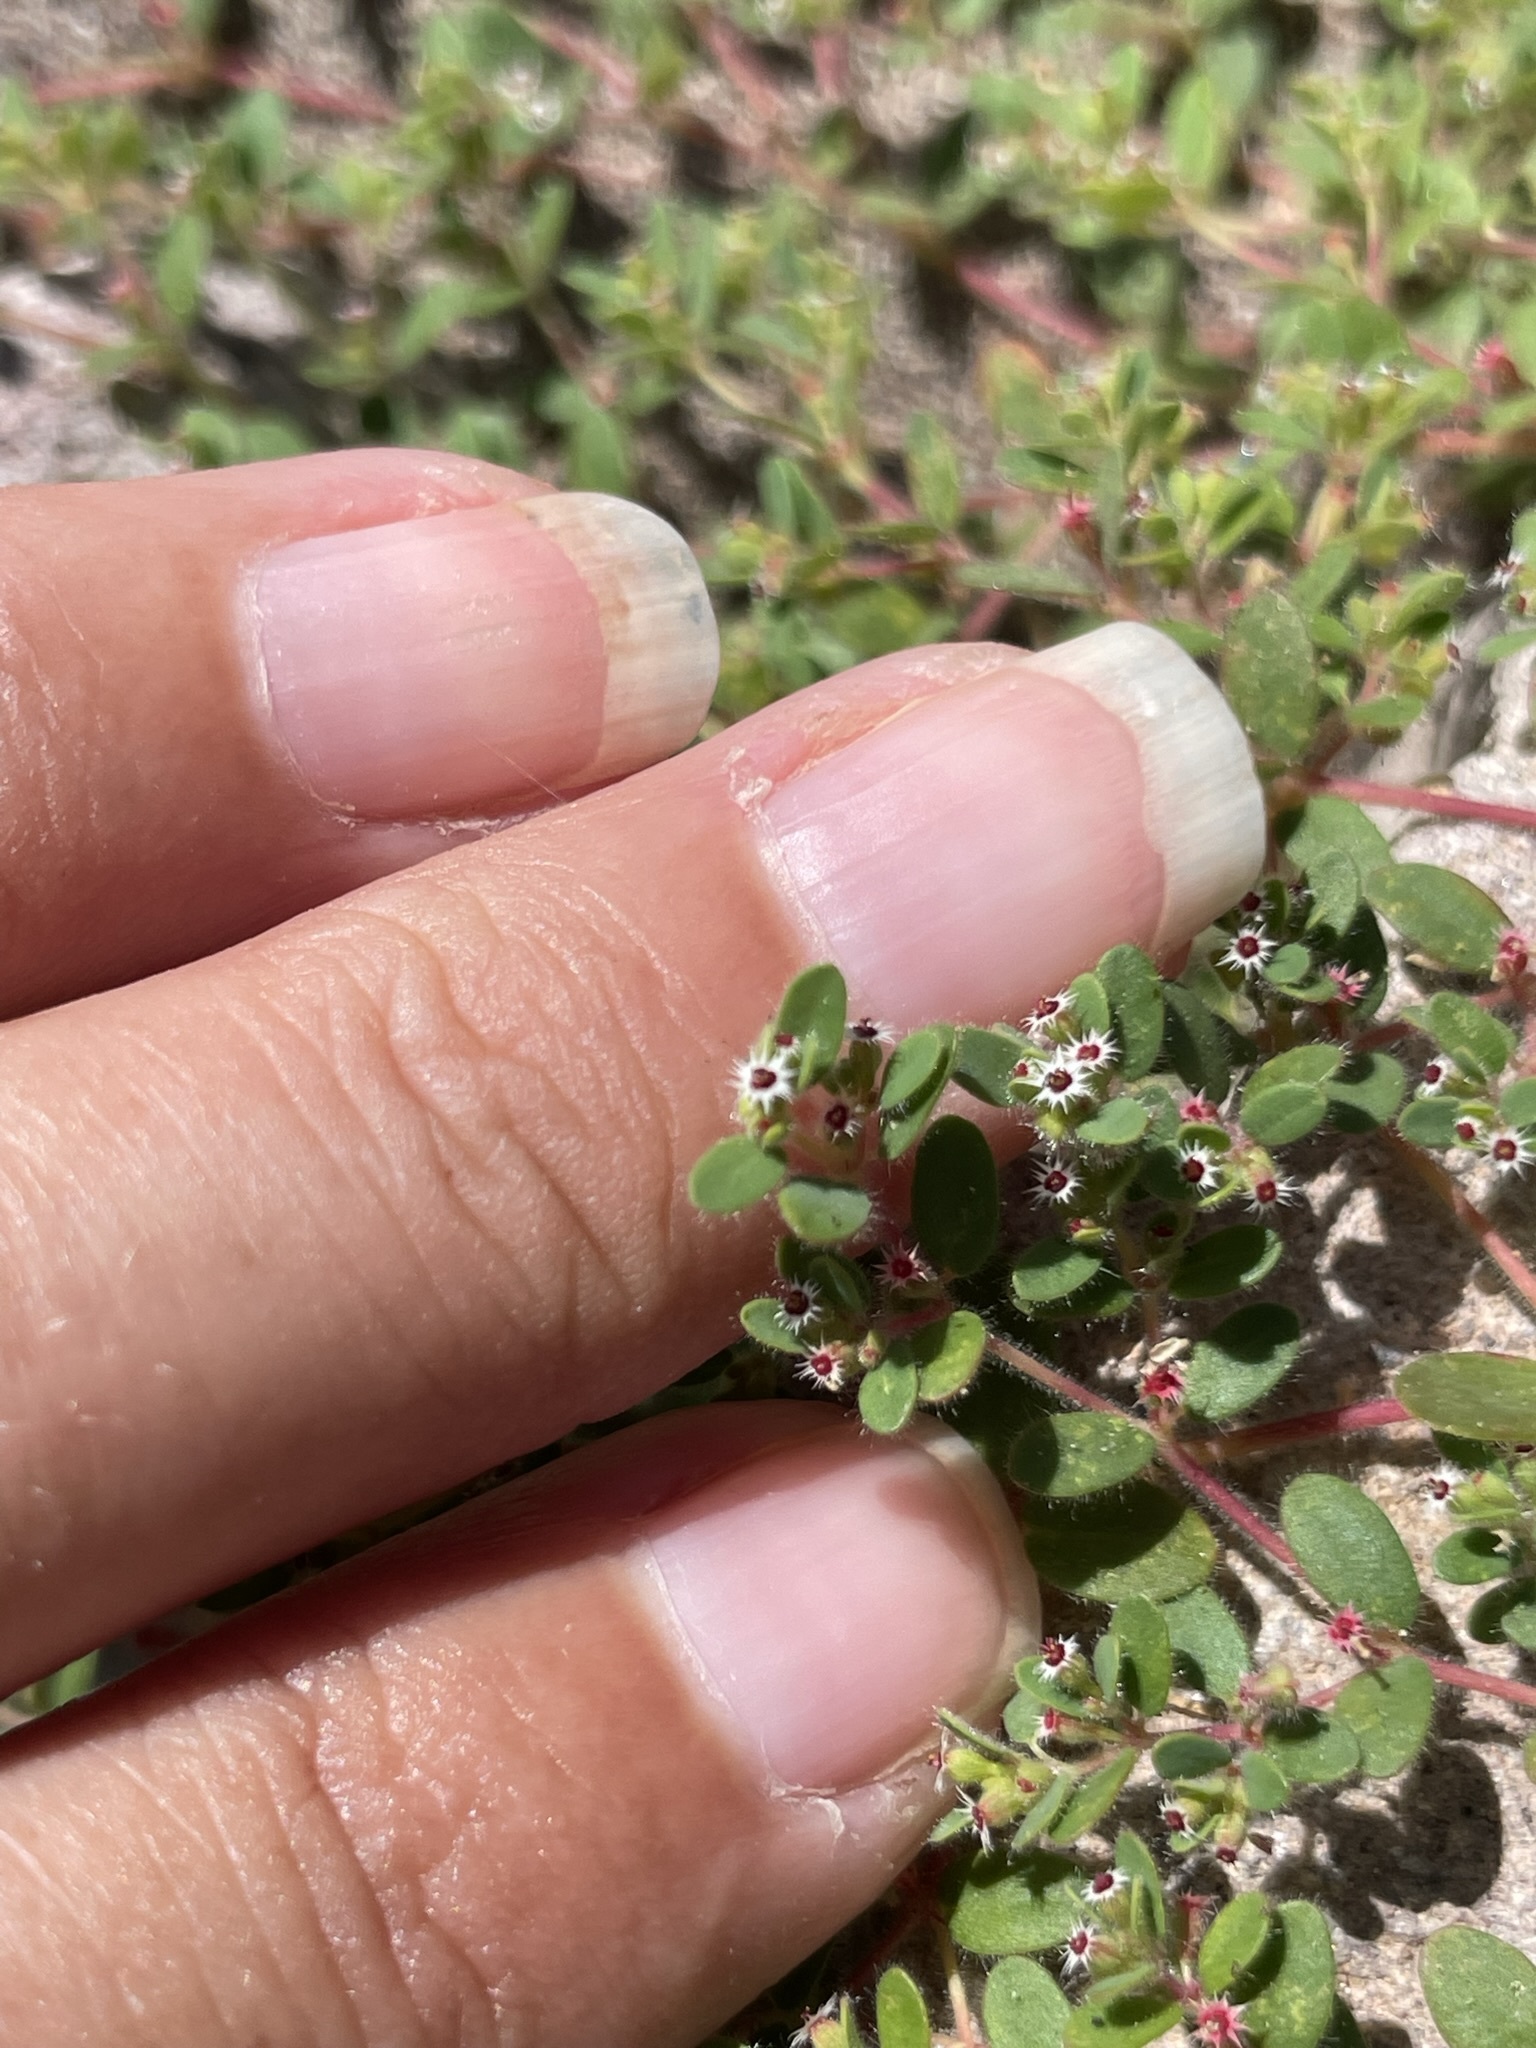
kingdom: Plantae
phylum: Tracheophyta
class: Magnoliopsida
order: Malpighiales
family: Euphorbiaceae
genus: Euphorbia
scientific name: Euphorbia setiloba
